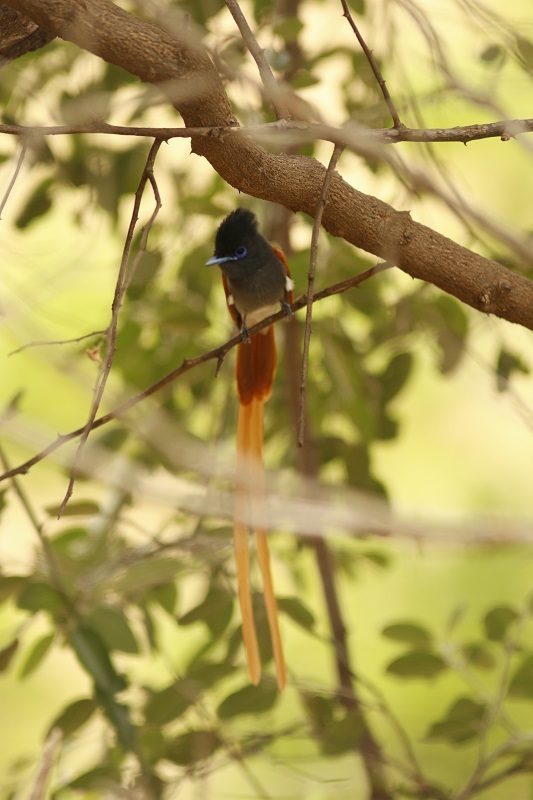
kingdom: Animalia
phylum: Chordata
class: Aves
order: Passeriformes
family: Monarchidae
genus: Terpsiphone
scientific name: Terpsiphone viridis
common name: African paradise flycatcher
